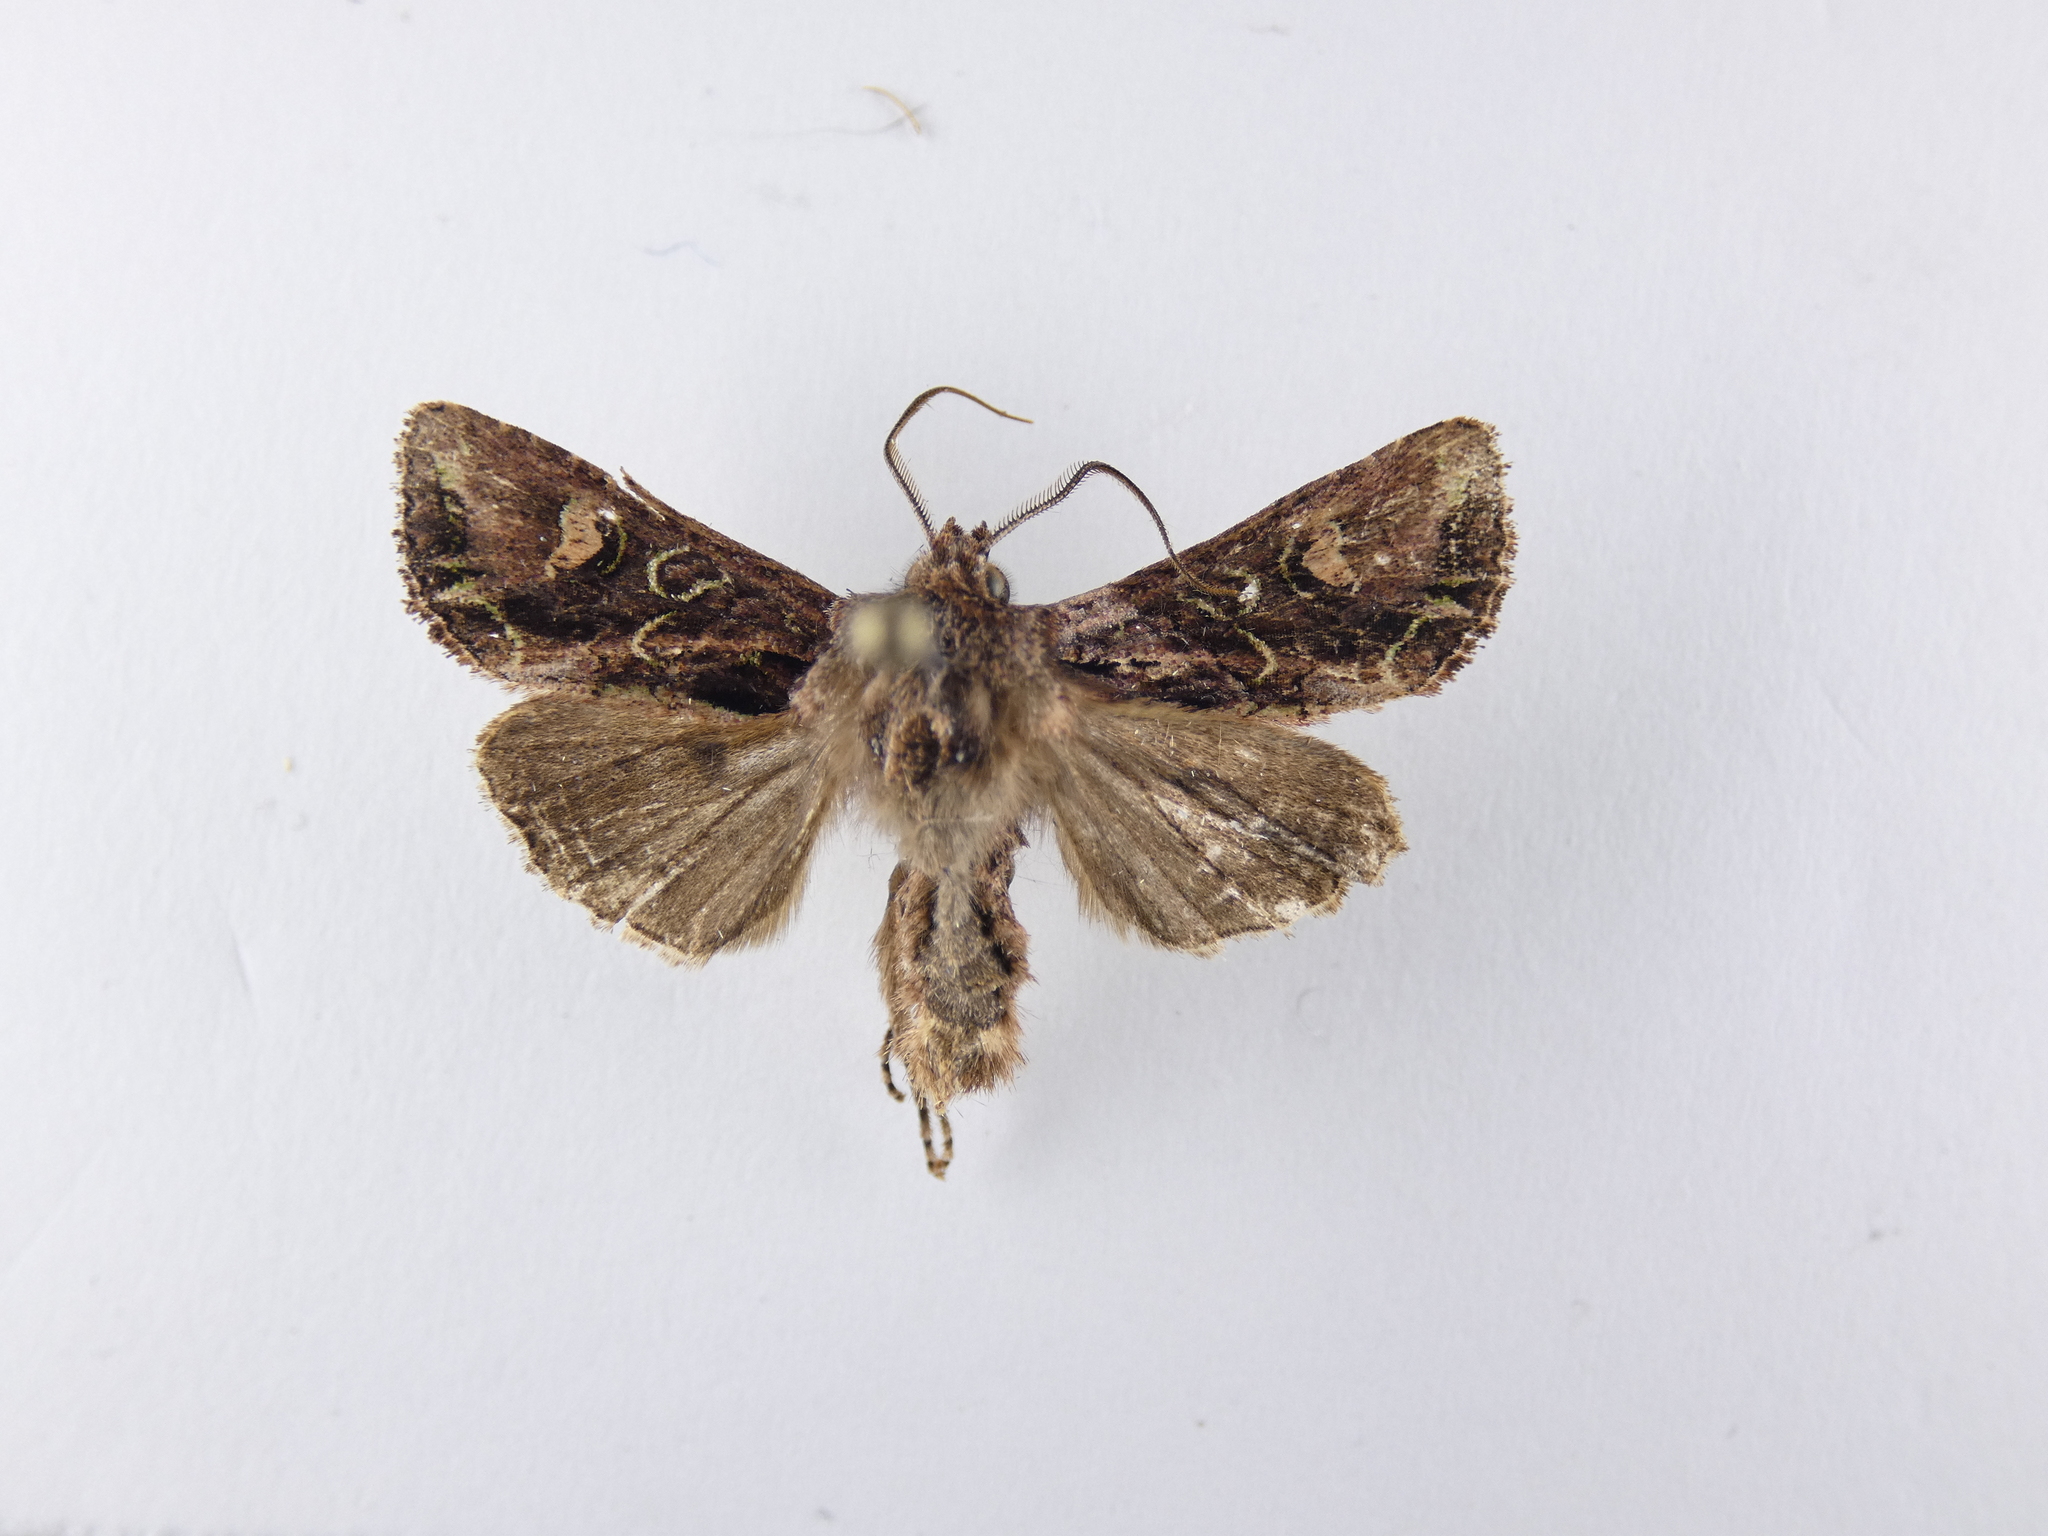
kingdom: Animalia
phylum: Arthropoda
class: Insecta
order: Lepidoptera
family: Noctuidae
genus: Ichneutica
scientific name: Ichneutica insignis
